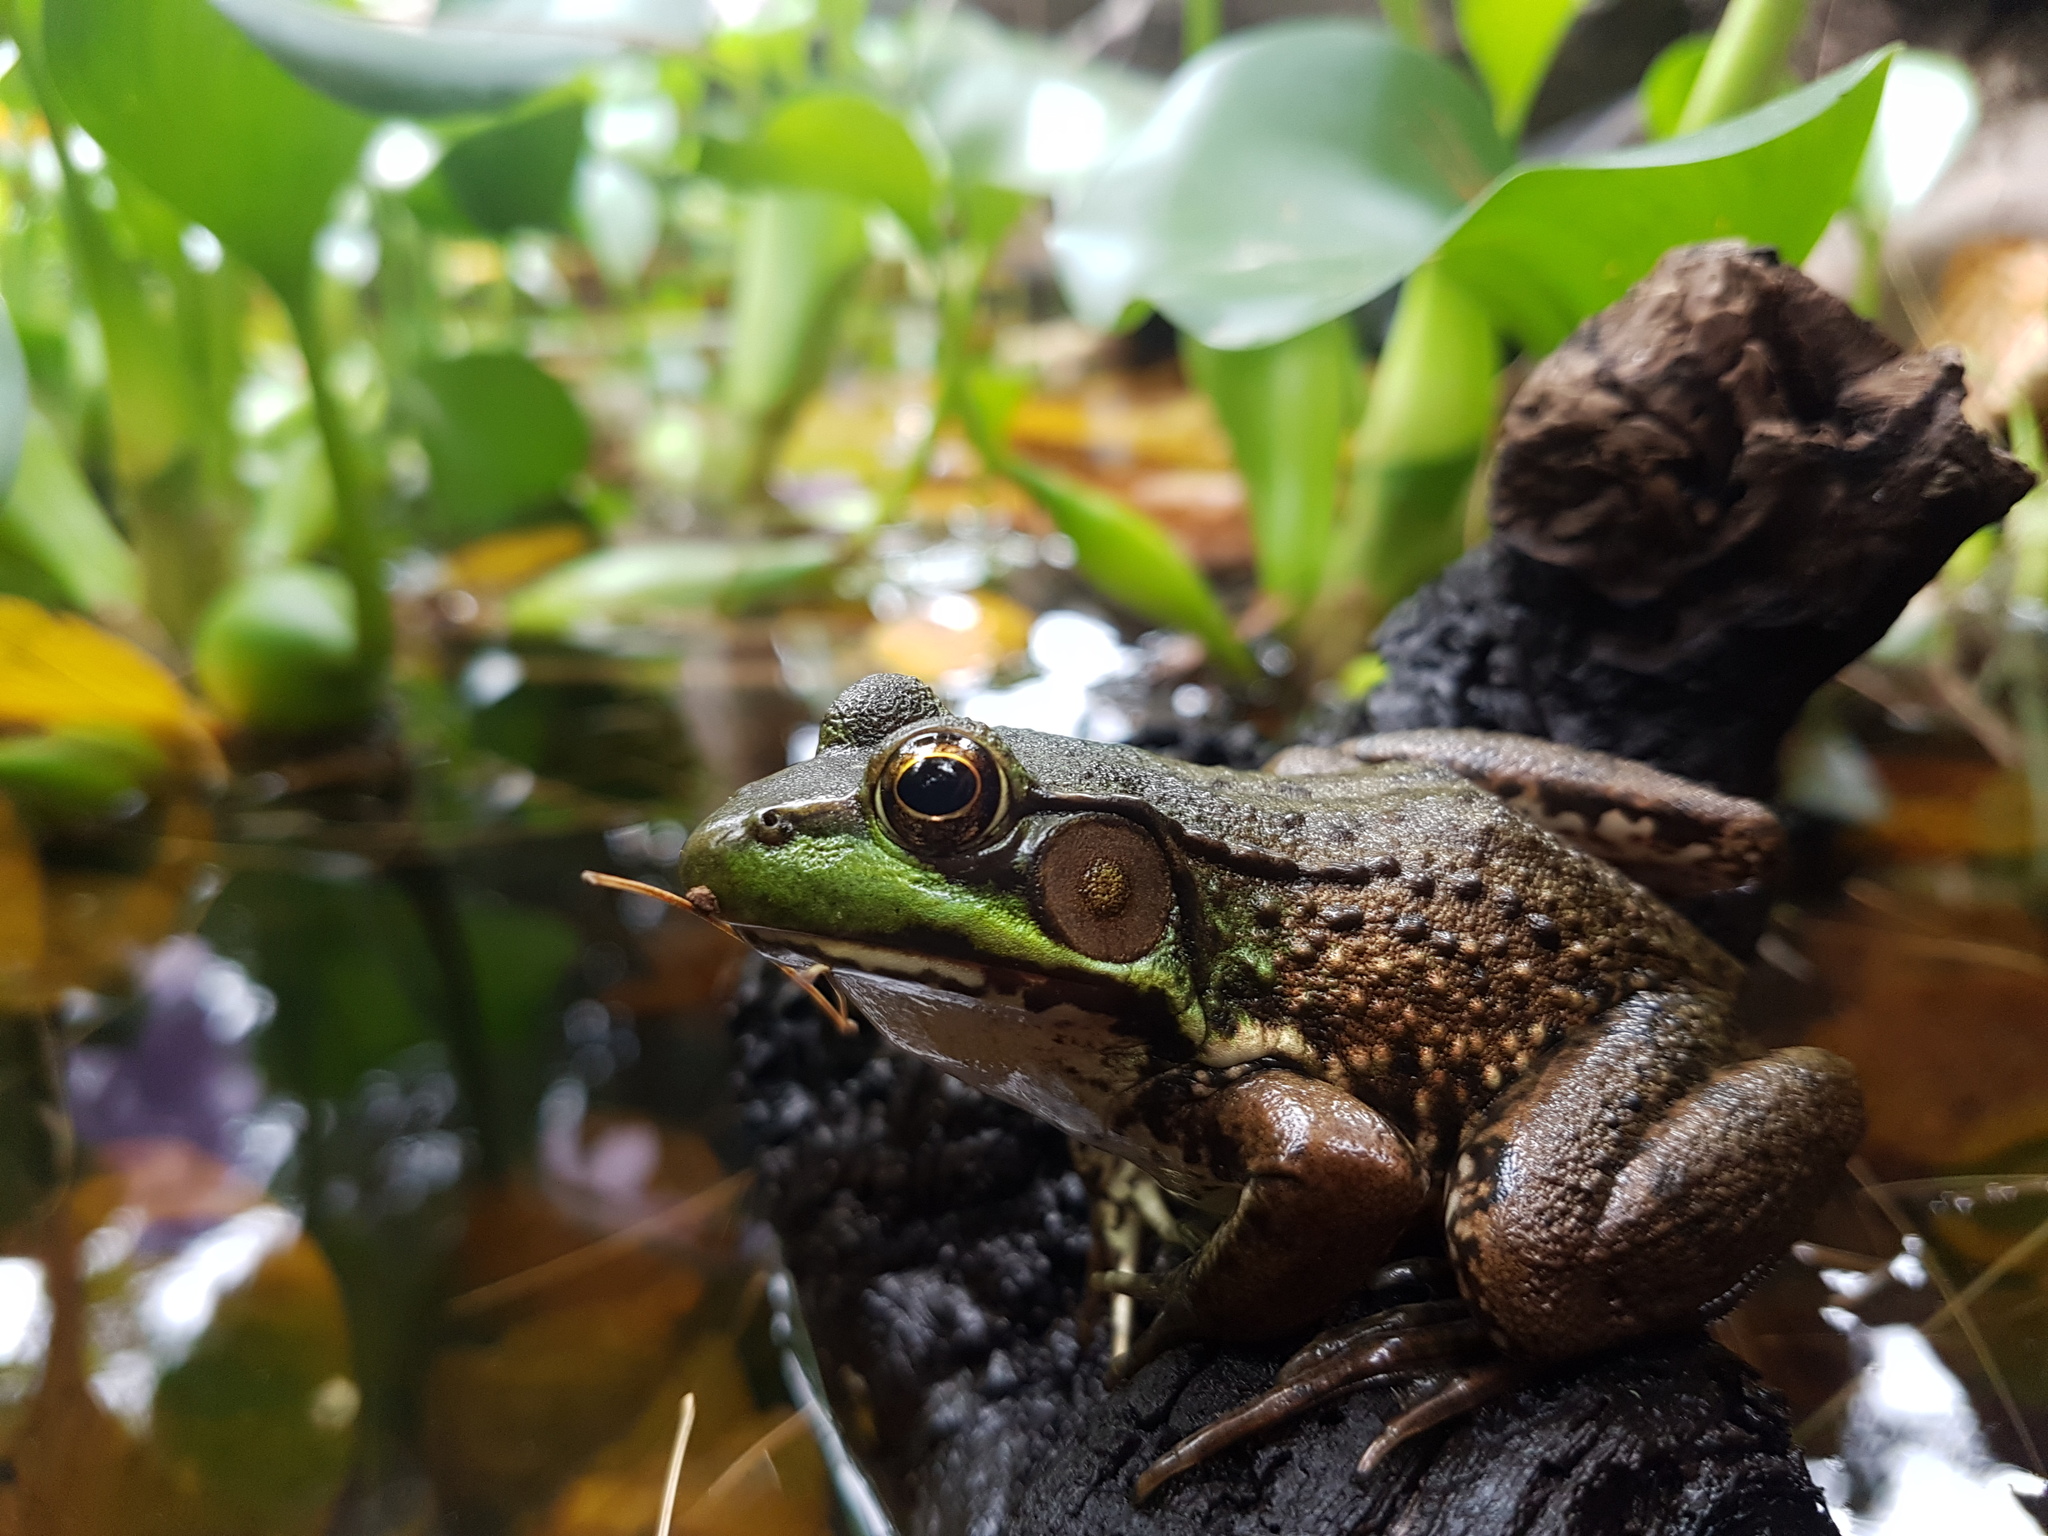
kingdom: Animalia
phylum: Chordata
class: Amphibia
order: Anura
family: Ranidae
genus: Lithobates
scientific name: Lithobates clamitans
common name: Green frog
